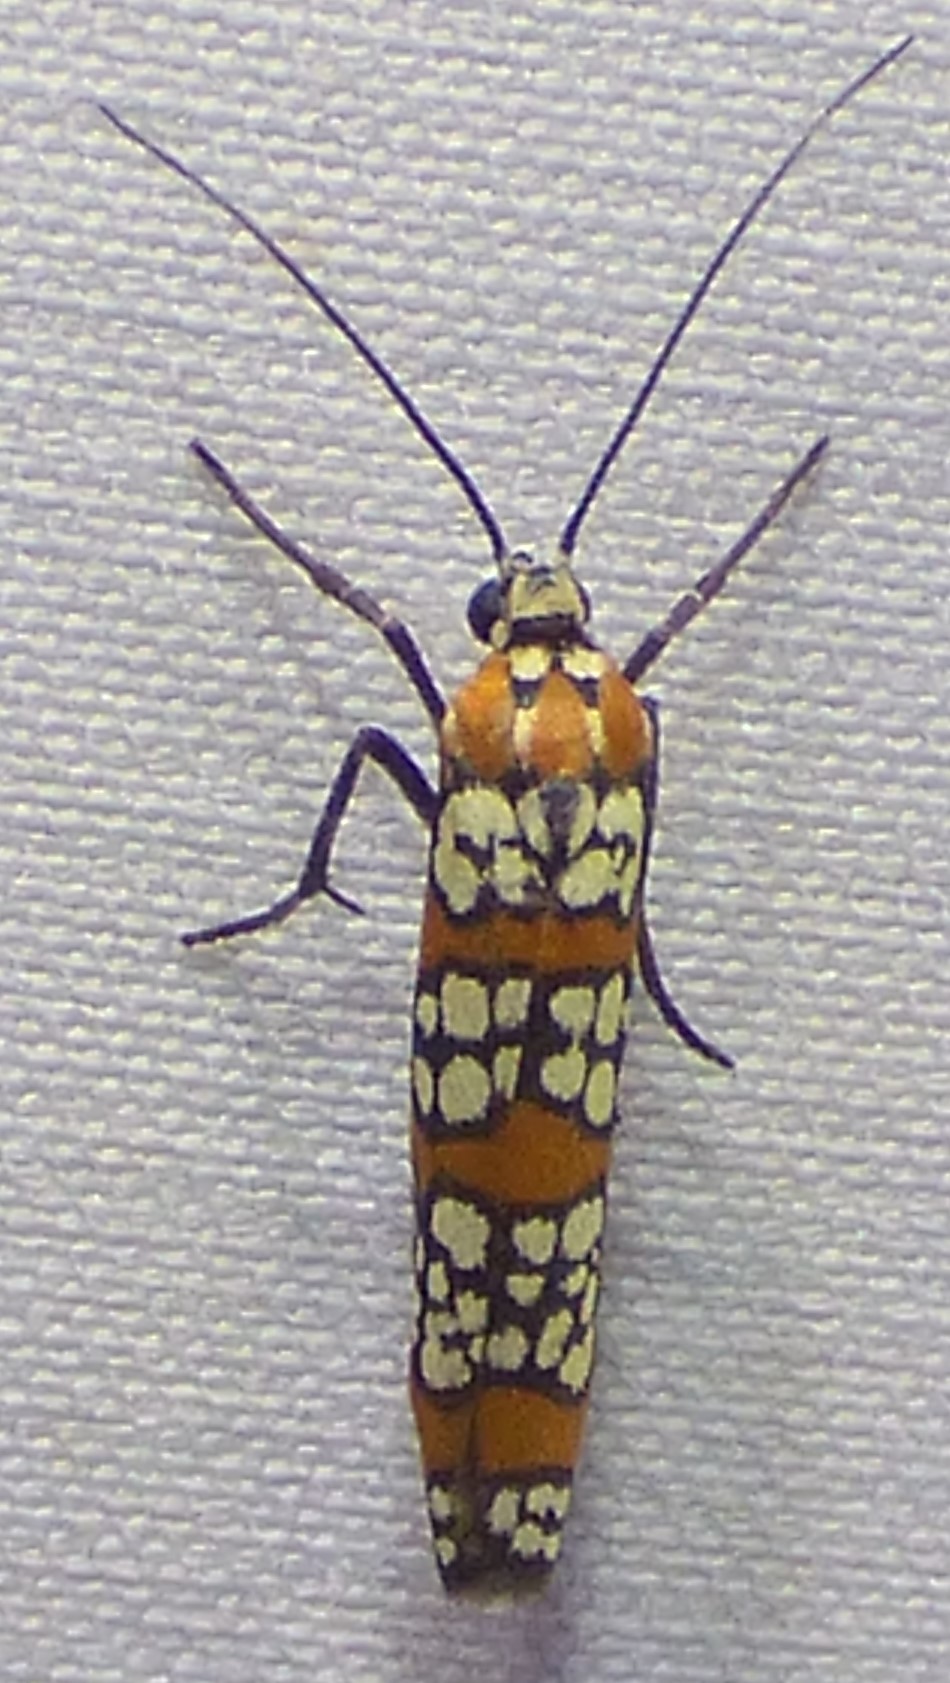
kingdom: Animalia
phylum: Arthropoda
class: Insecta
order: Lepidoptera
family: Attevidae
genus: Atteva
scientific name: Atteva punctella
